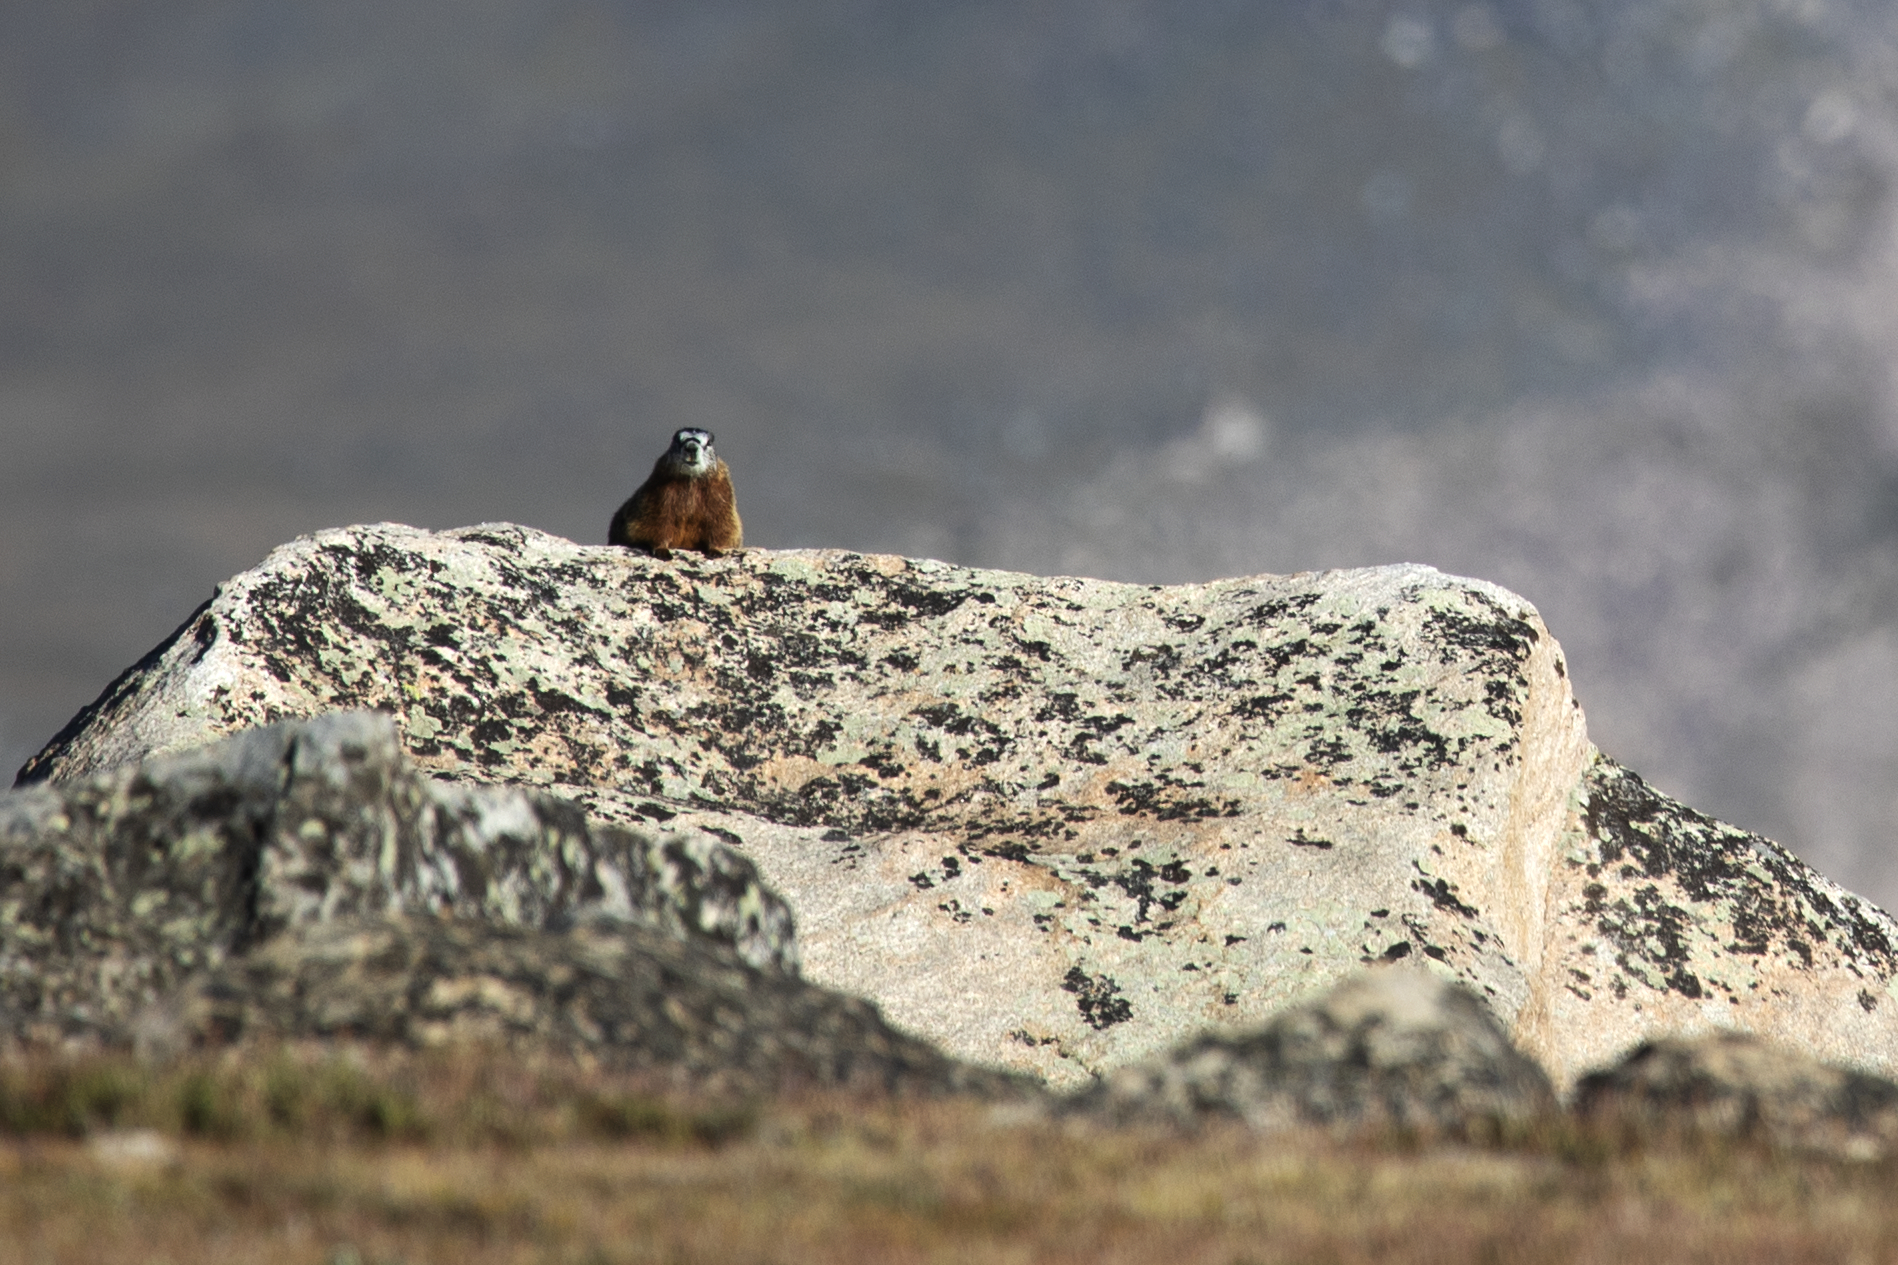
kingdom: Animalia
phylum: Chordata
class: Mammalia
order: Rodentia
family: Sciuridae
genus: Marmota
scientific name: Marmota flaviventris
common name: Yellow-bellied marmot
